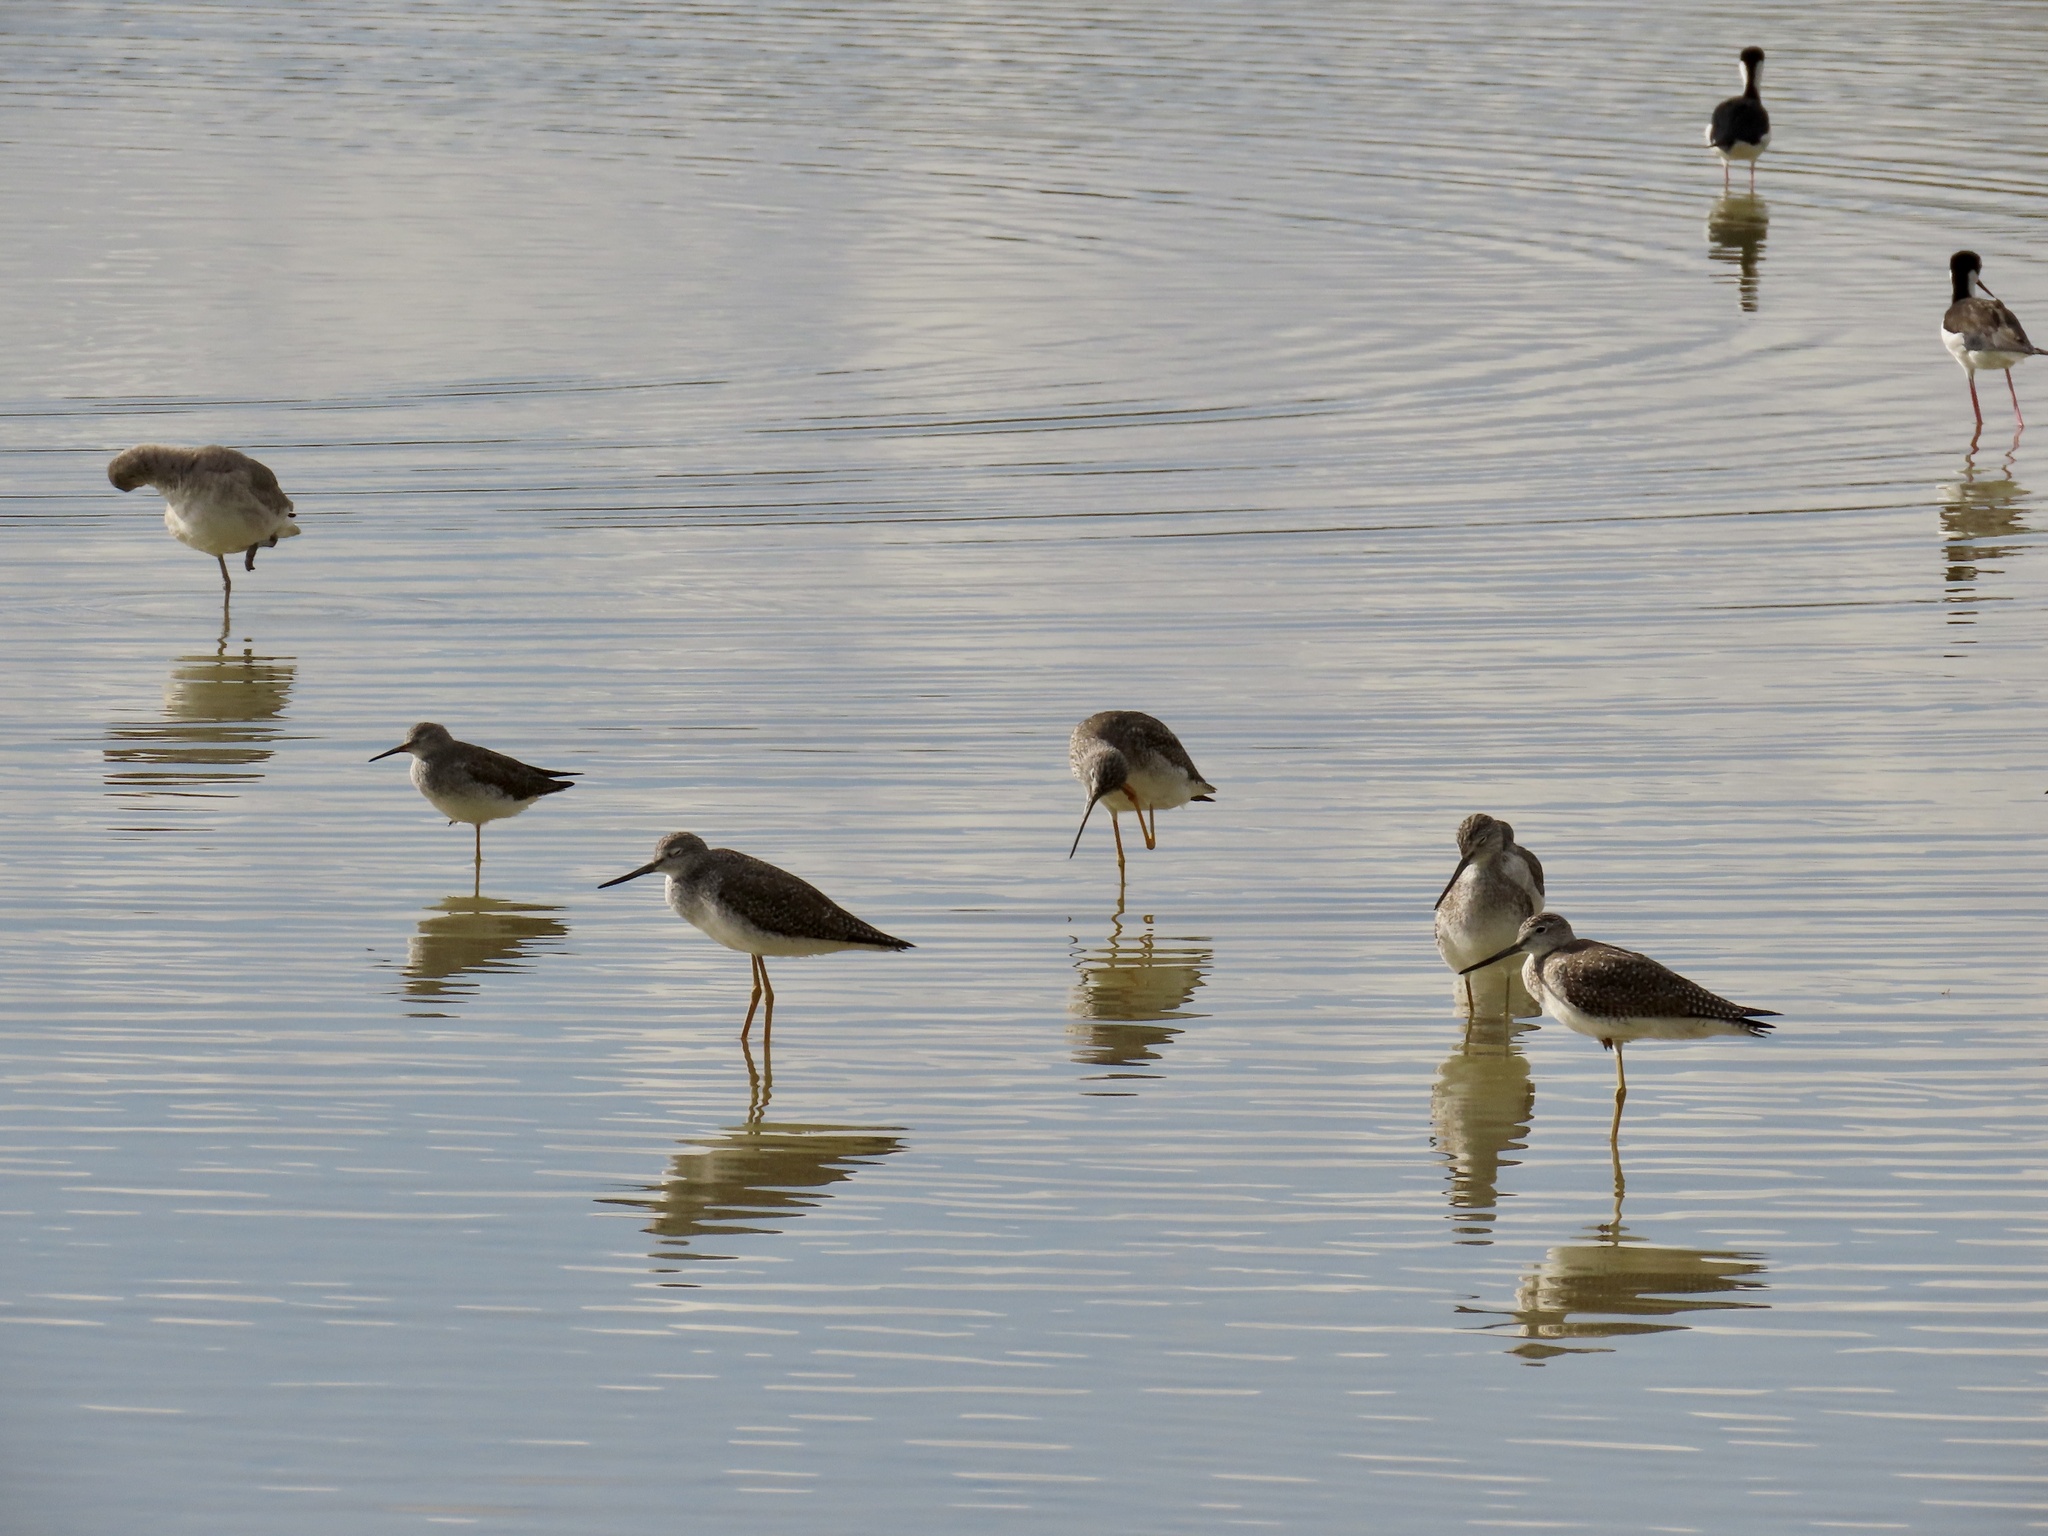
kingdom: Animalia
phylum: Chordata
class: Aves
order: Charadriiformes
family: Scolopacidae
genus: Tringa
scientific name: Tringa melanoleuca
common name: Greater yellowlegs
